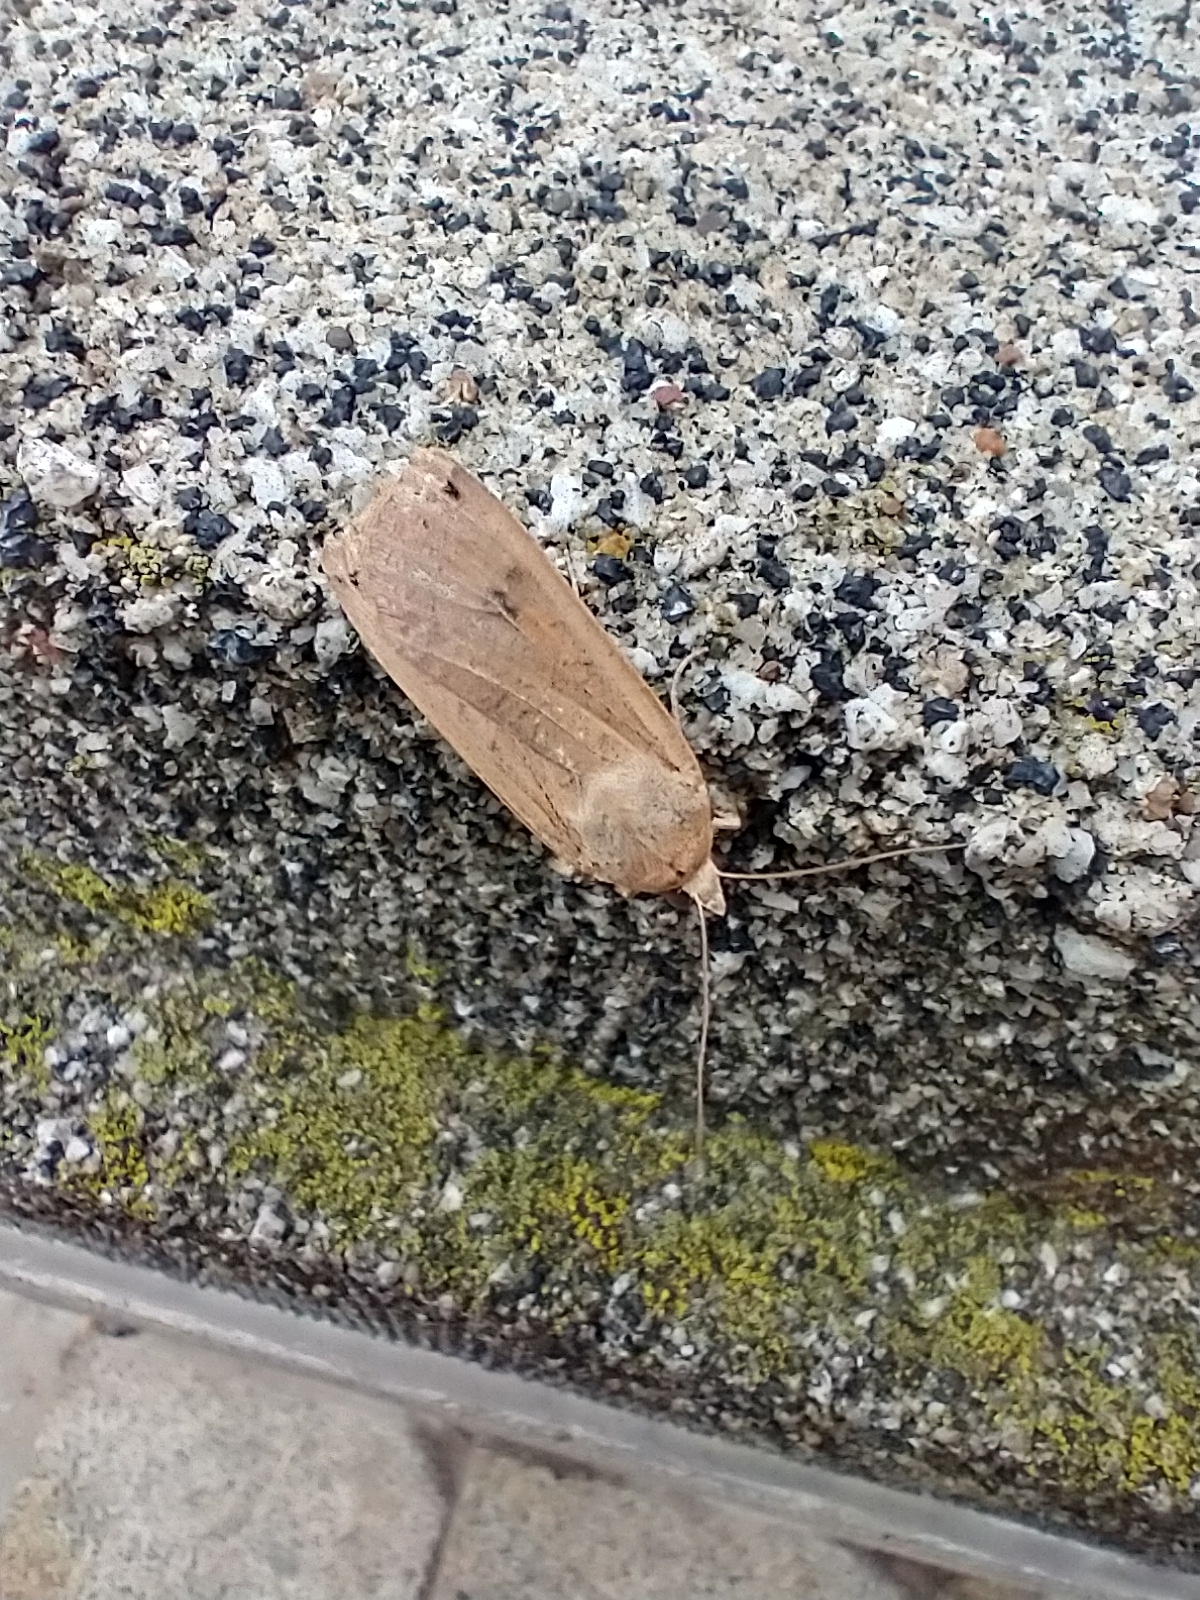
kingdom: Animalia
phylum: Arthropoda
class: Insecta
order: Lepidoptera
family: Noctuidae
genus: Noctua
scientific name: Noctua pronuba
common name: Large yellow underwing
